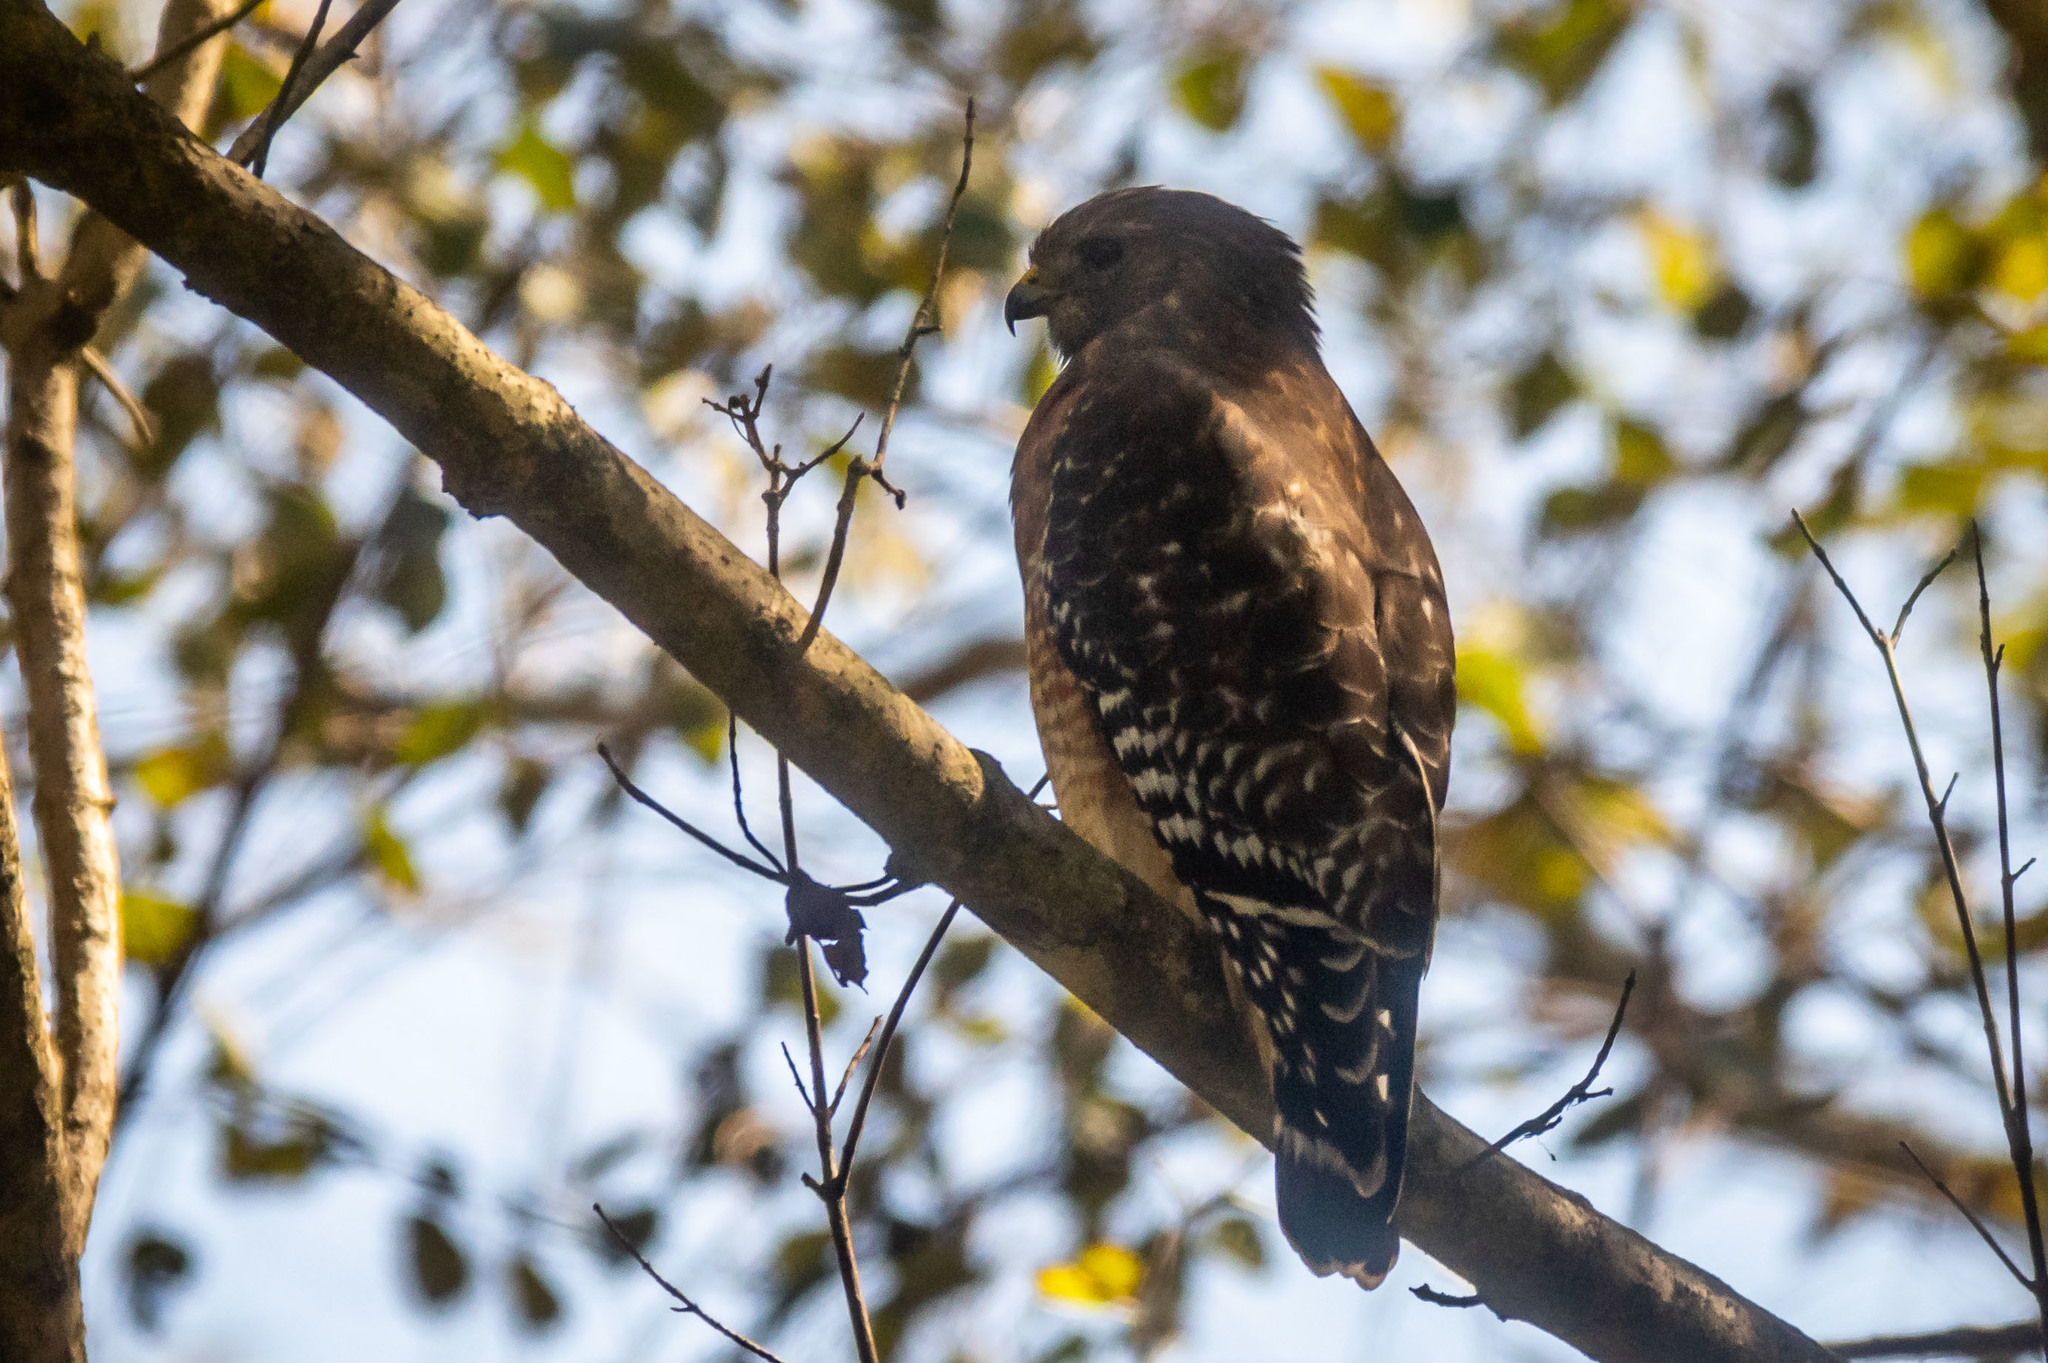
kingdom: Animalia
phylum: Chordata
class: Aves
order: Accipitriformes
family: Accipitridae
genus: Buteo
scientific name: Buteo lineatus
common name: Red-shouldered hawk
